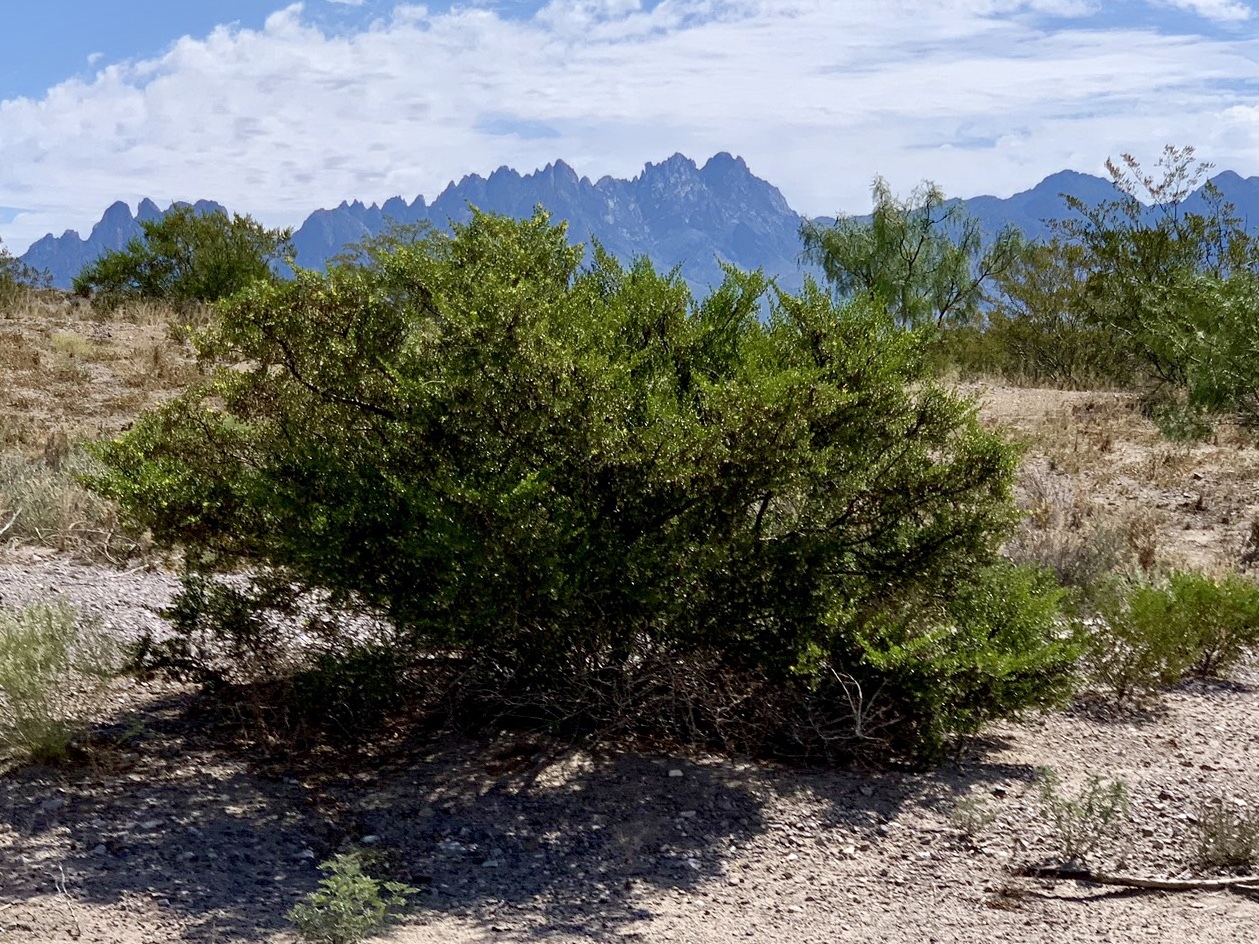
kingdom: Plantae
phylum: Tracheophyta
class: Magnoliopsida
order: Zygophyllales
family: Zygophyllaceae
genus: Larrea
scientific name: Larrea tridentata
